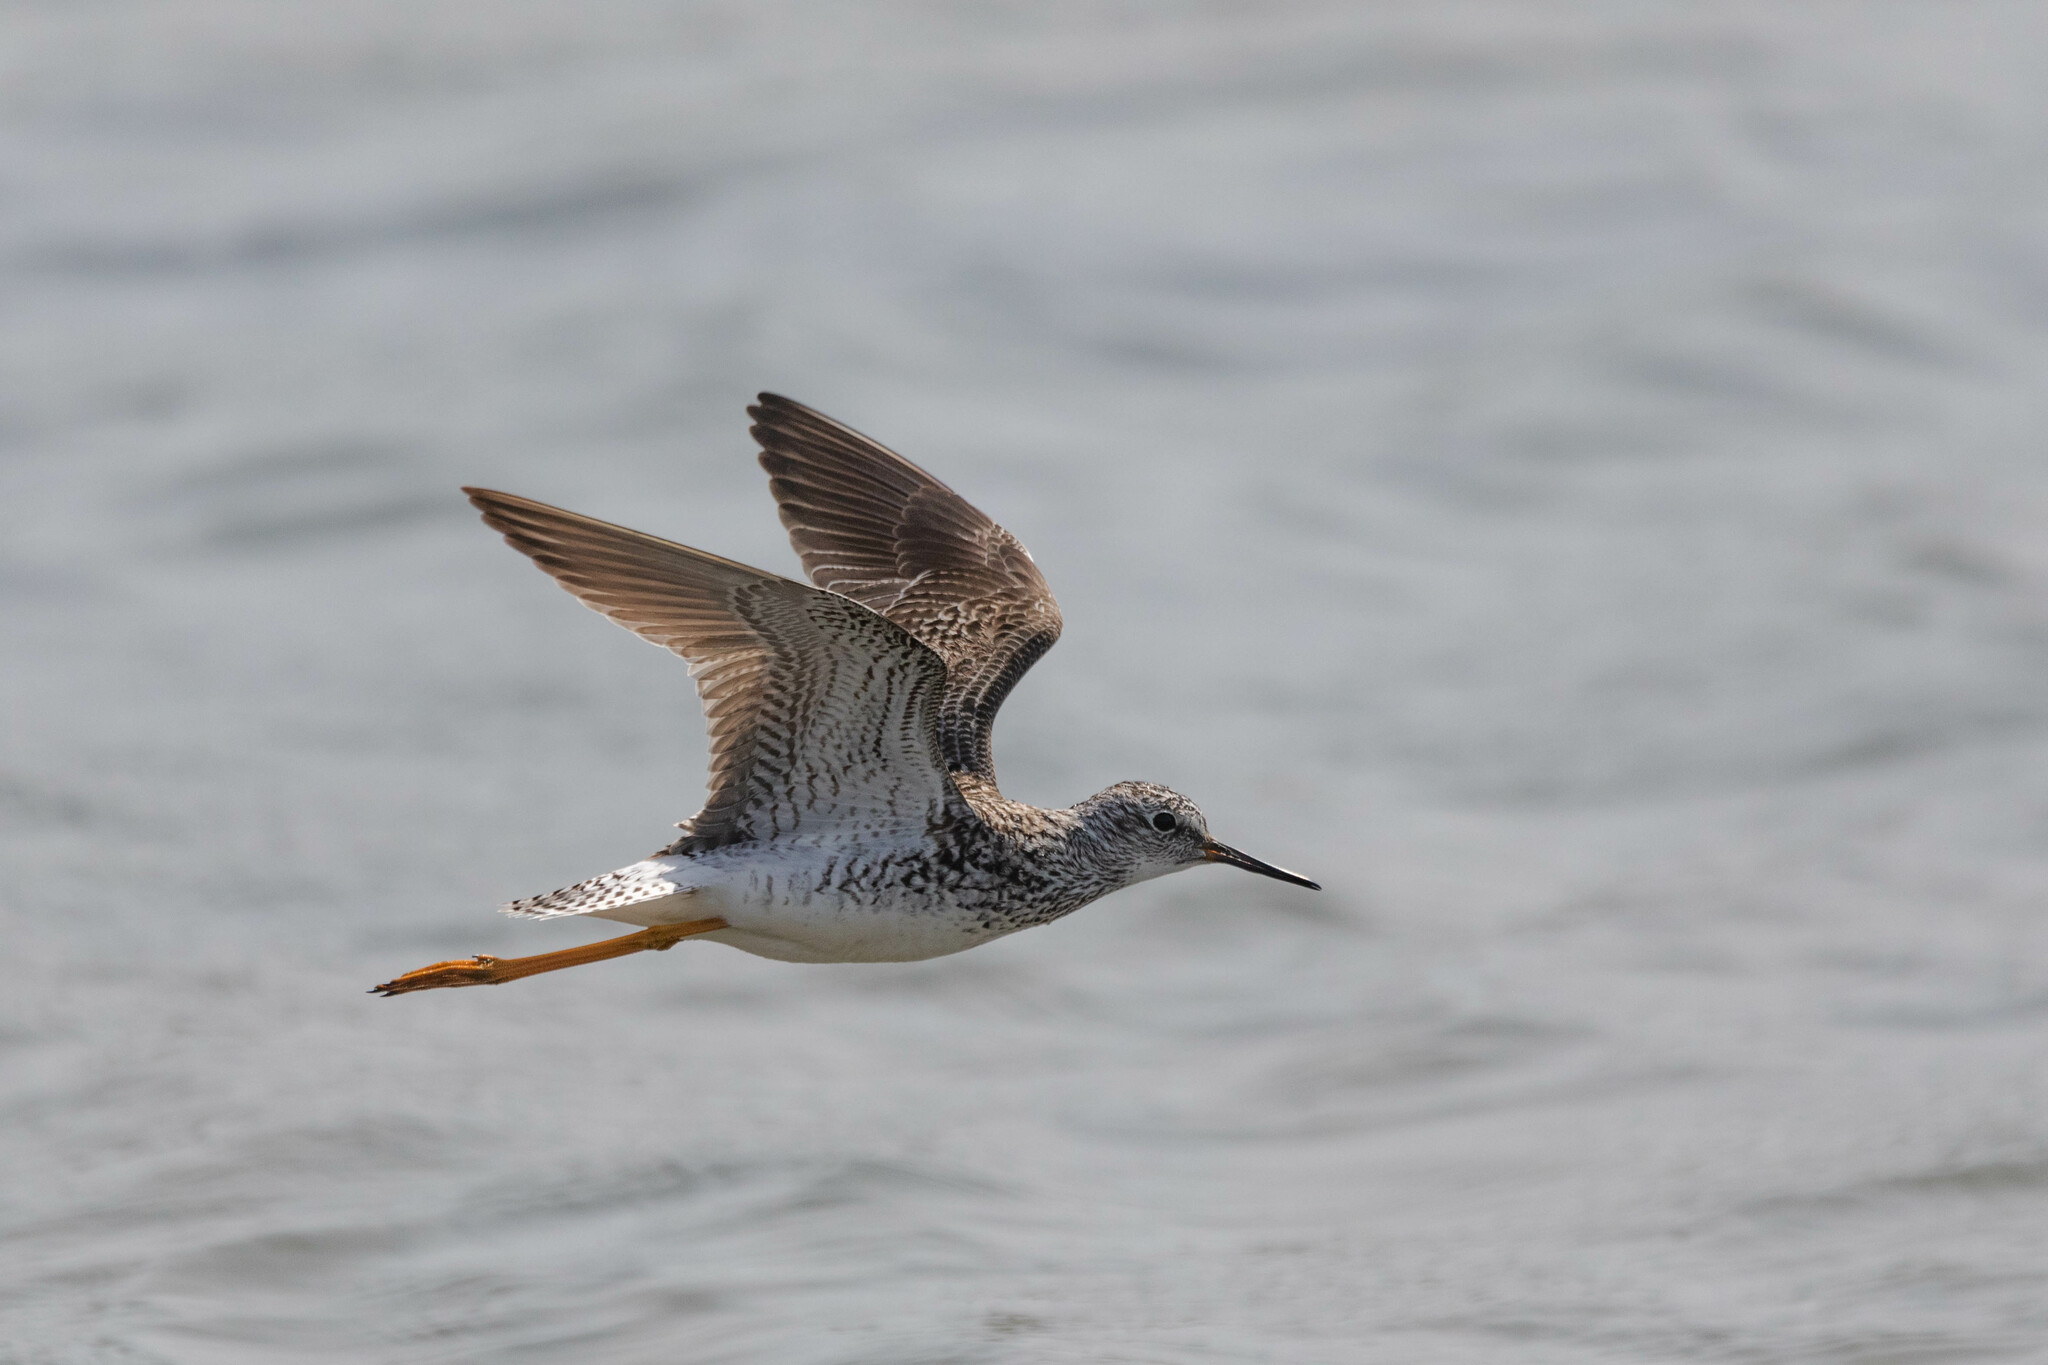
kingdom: Animalia
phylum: Chordata
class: Aves
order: Charadriiformes
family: Scolopacidae
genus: Tringa
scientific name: Tringa flavipes
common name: Lesser yellowlegs
